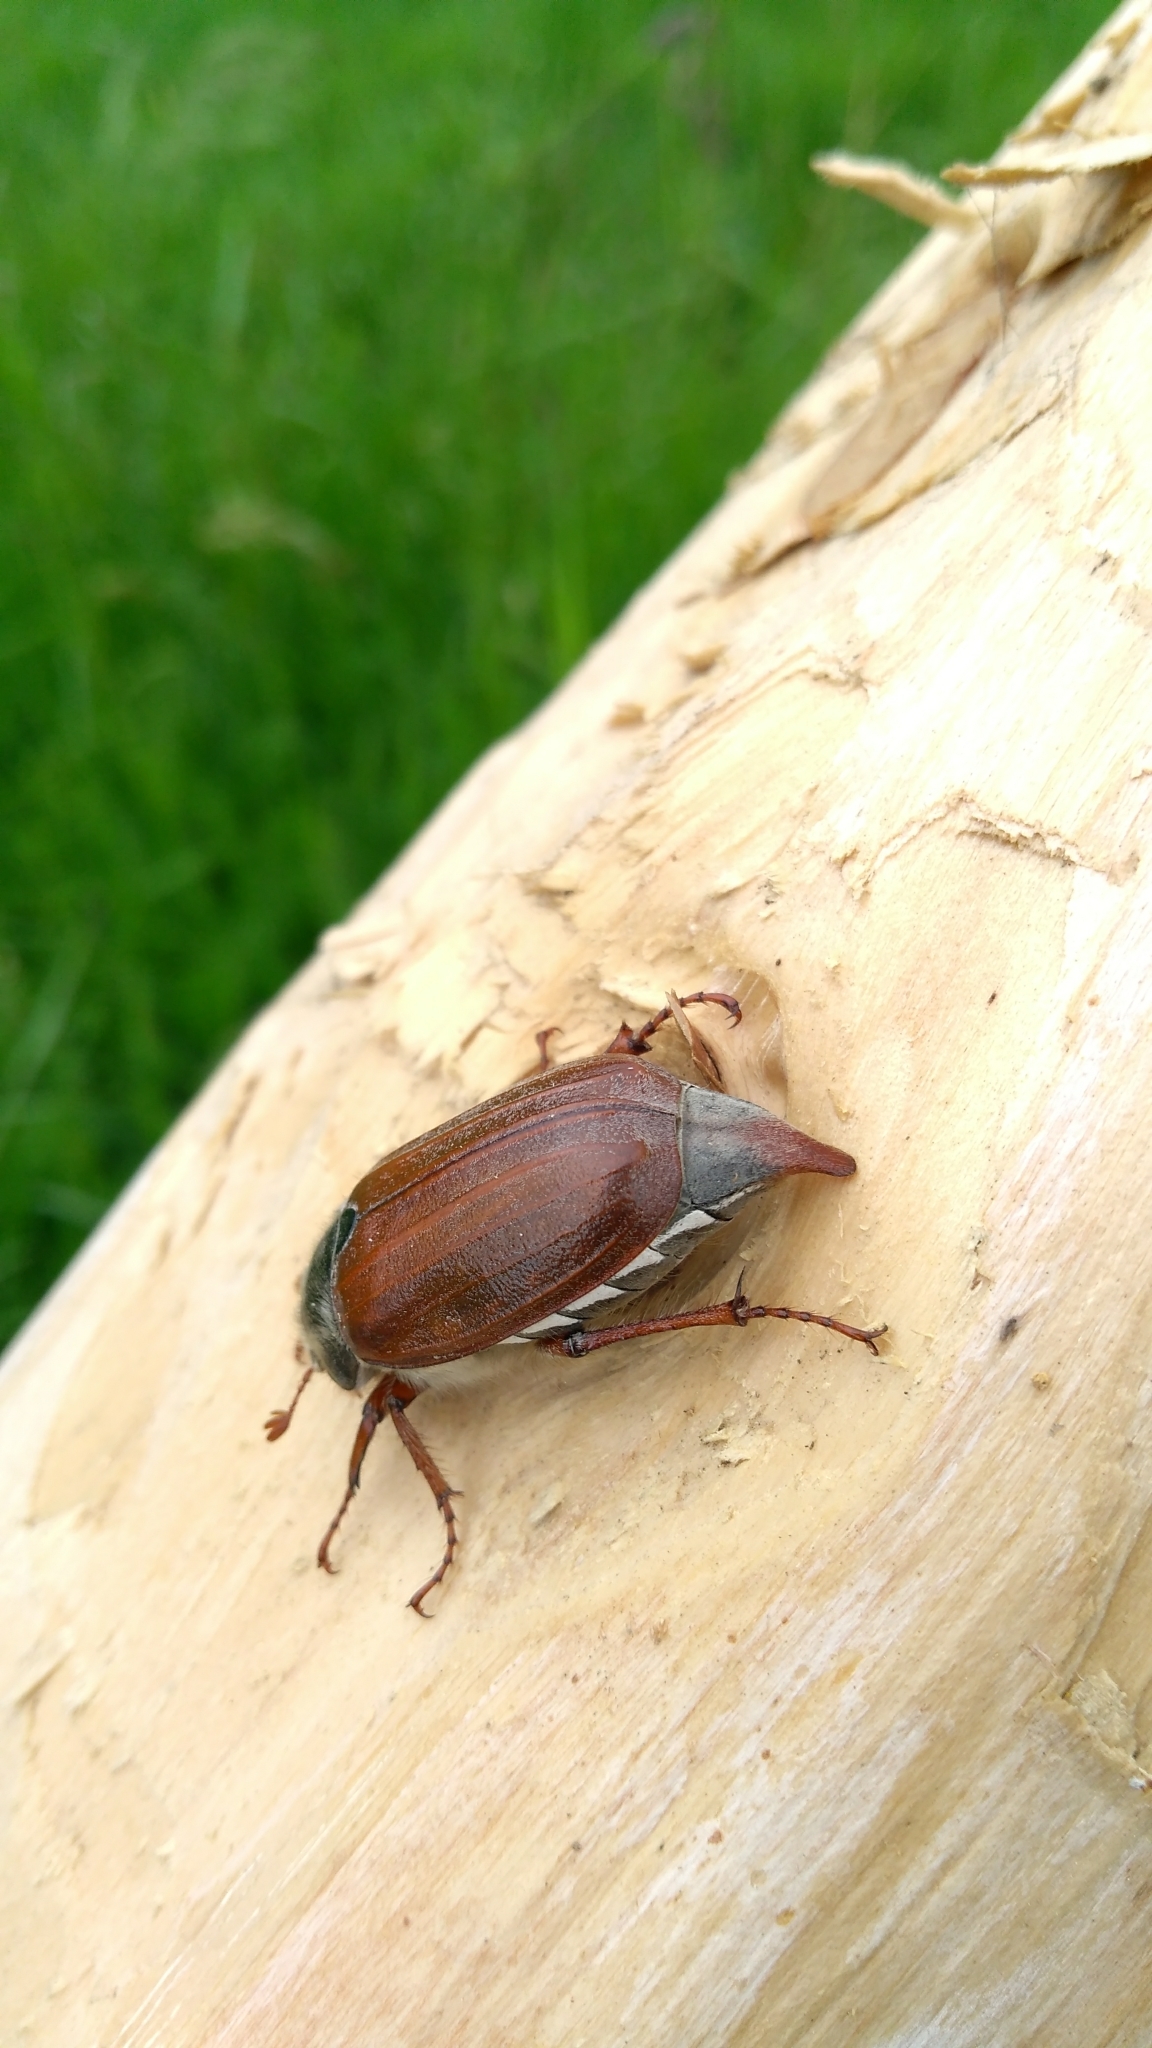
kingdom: Animalia
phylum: Arthropoda
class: Insecta
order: Coleoptera
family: Scarabaeidae
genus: Melolontha
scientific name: Melolontha melolontha
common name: Cockchafer maybeetle
